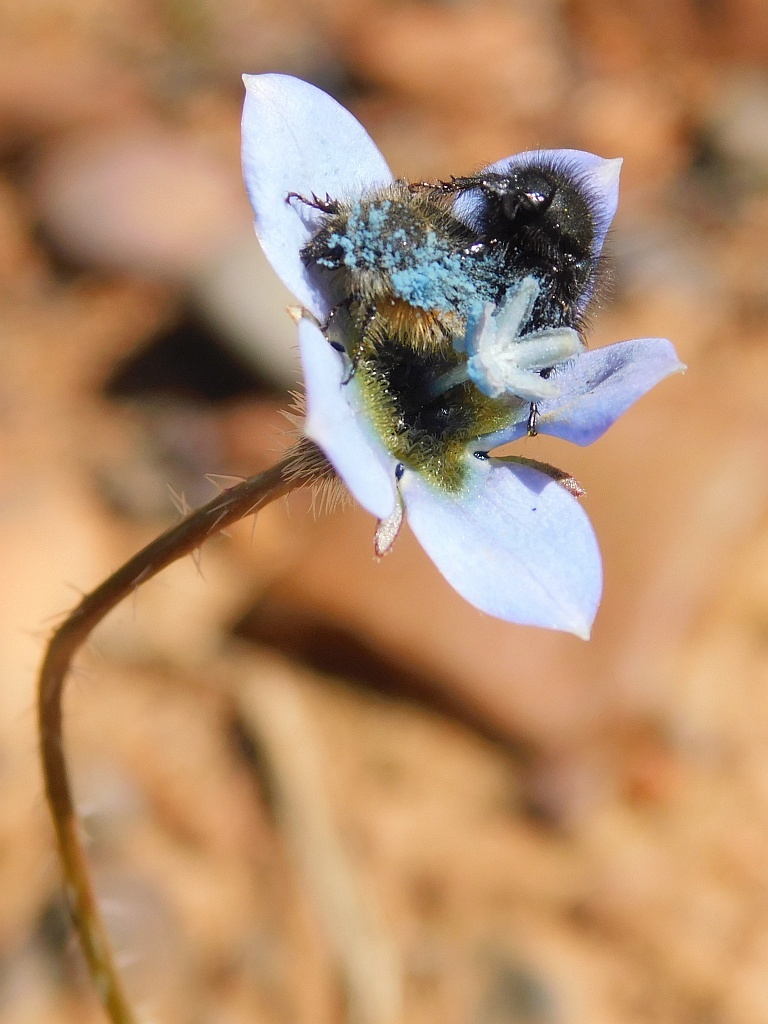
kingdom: Plantae
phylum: Tracheophyta
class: Magnoliopsida
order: Asterales
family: Campanulaceae
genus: Wahlenbergia
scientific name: Wahlenbergia capensis
